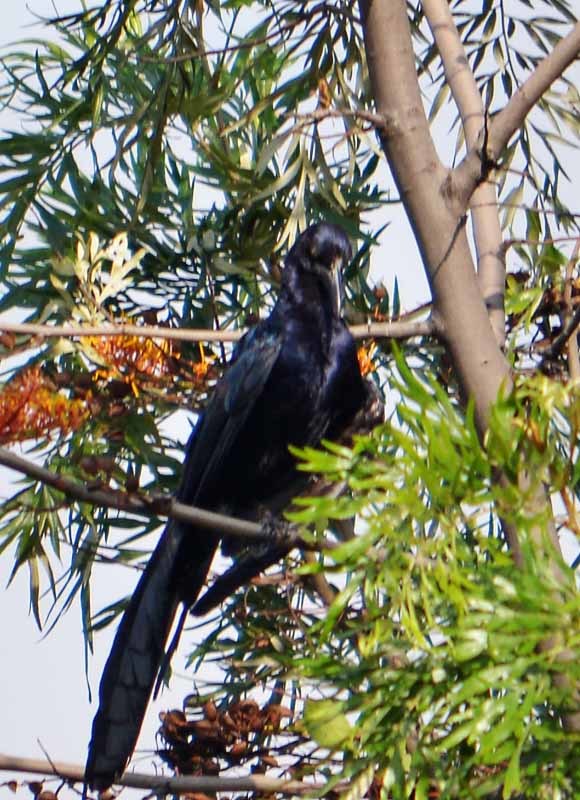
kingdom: Animalia
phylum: Chordata
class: Aves
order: Passeriformes
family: Icteridae
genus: Quiscalus
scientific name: Quiscalus mexicanus
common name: Great-tailed grackle
